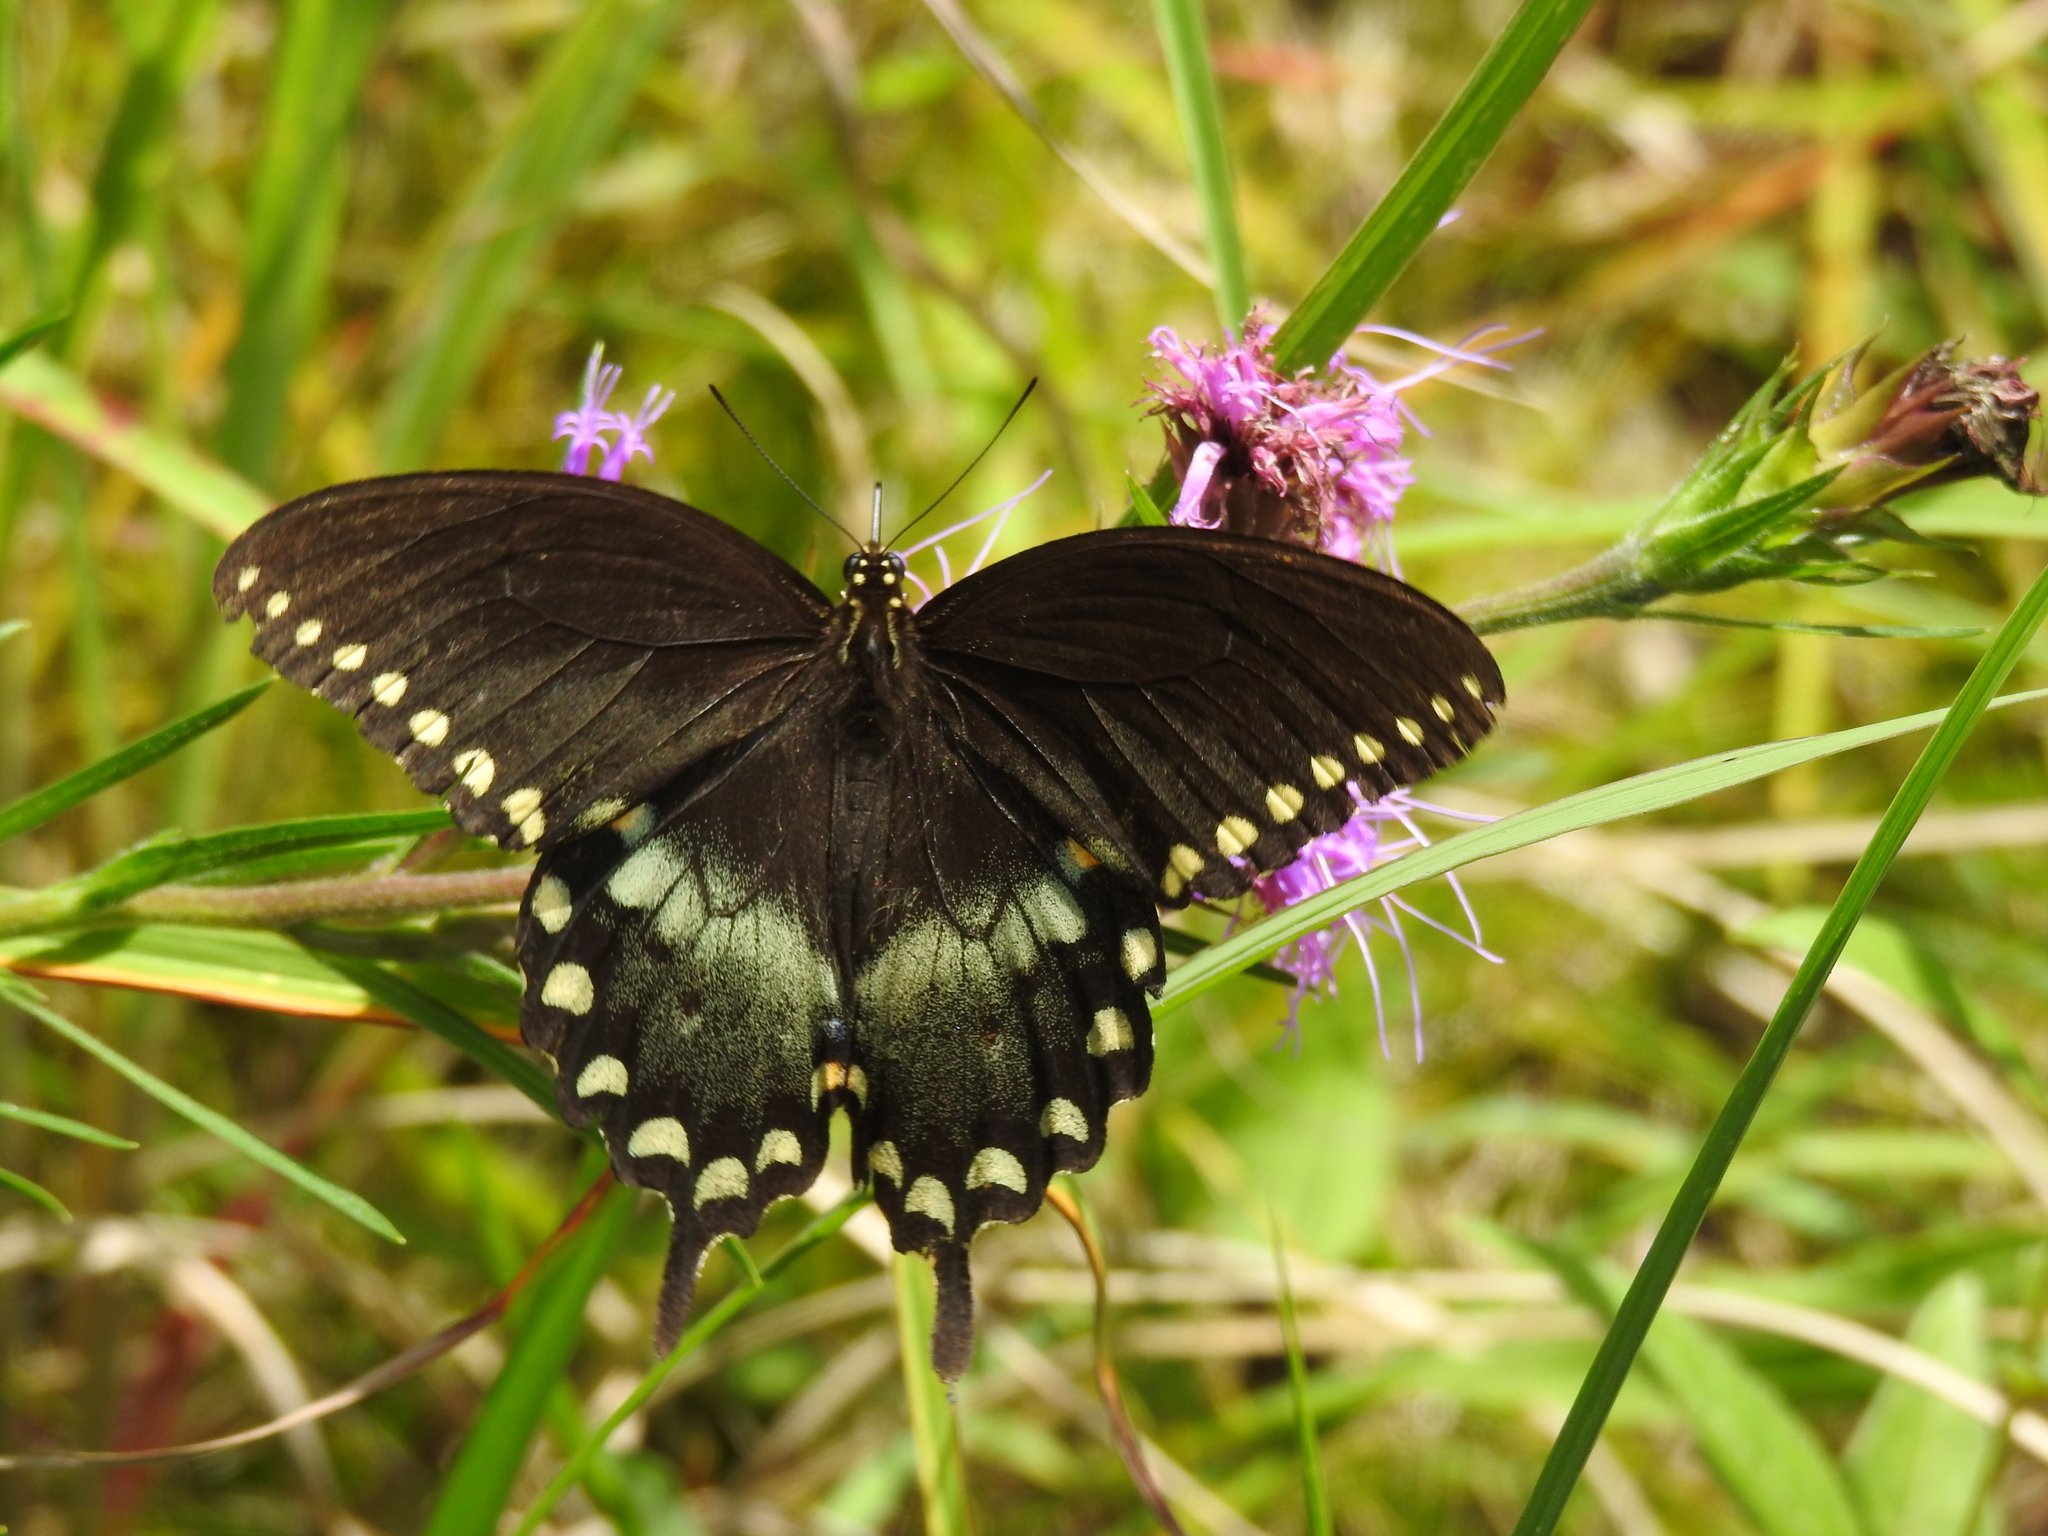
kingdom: Animalia
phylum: Arthropoda
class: Insecta
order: Lepidoptera
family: Papilionidae
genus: Papilio
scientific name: Papilio troilus
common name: Spicebush swallowtail
